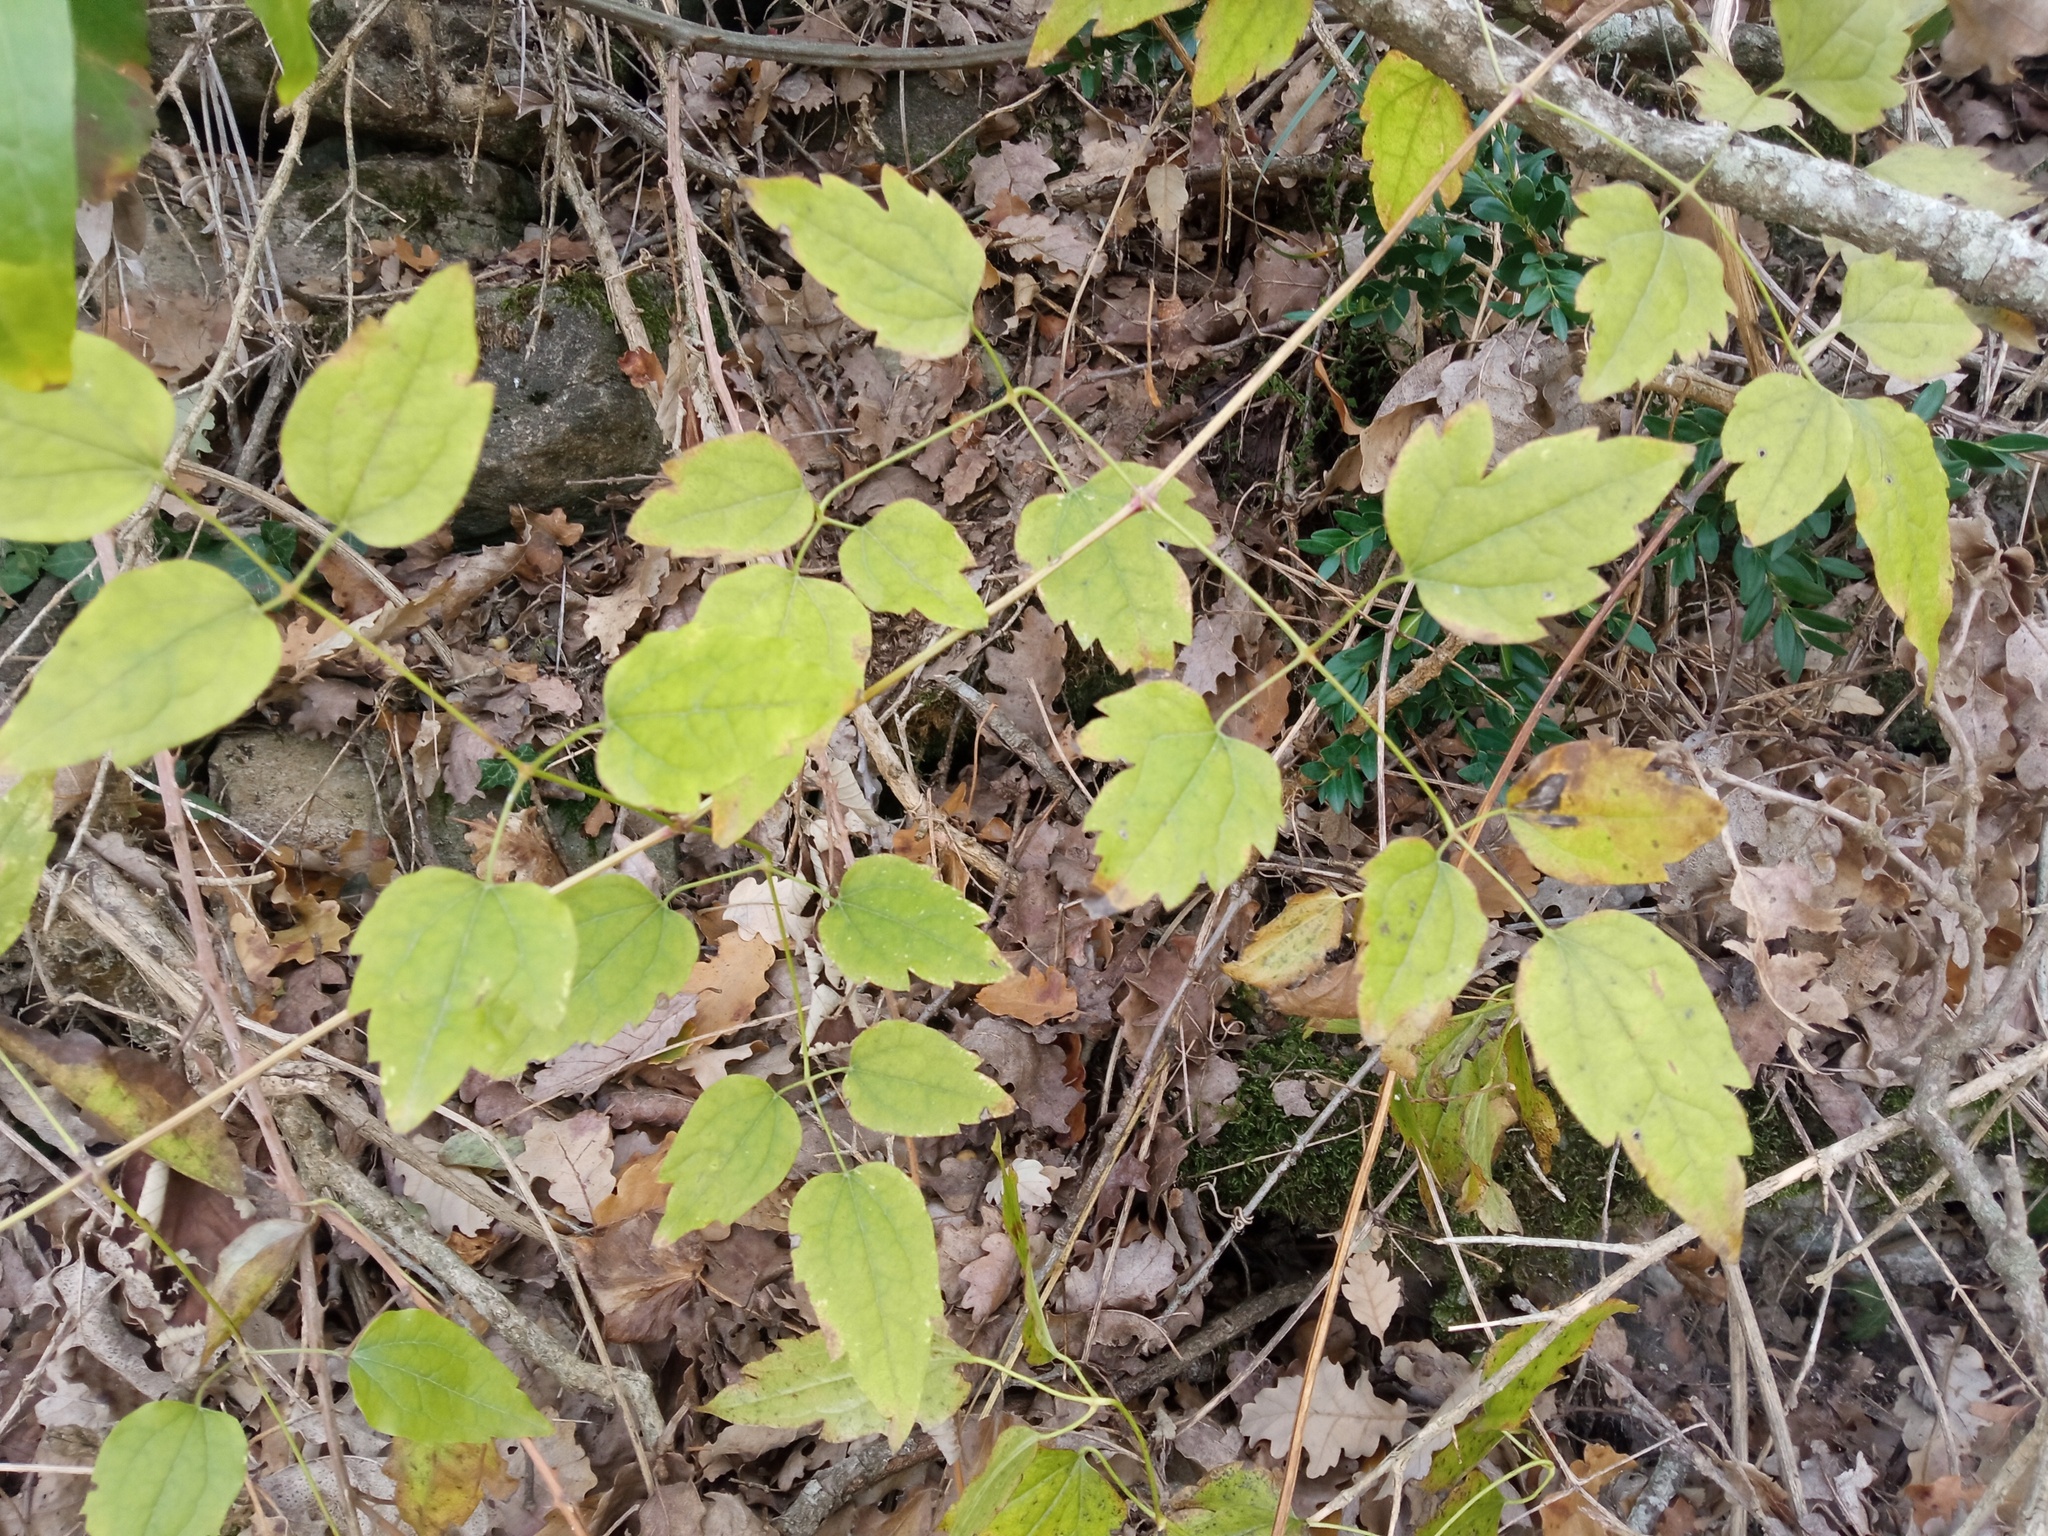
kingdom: Plantae
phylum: Tracheophyta
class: Magnoliopsida
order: Ranunculales
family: Ranunculaceae
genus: Clematis
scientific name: Clematis vitalba
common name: Evergreen clematis
